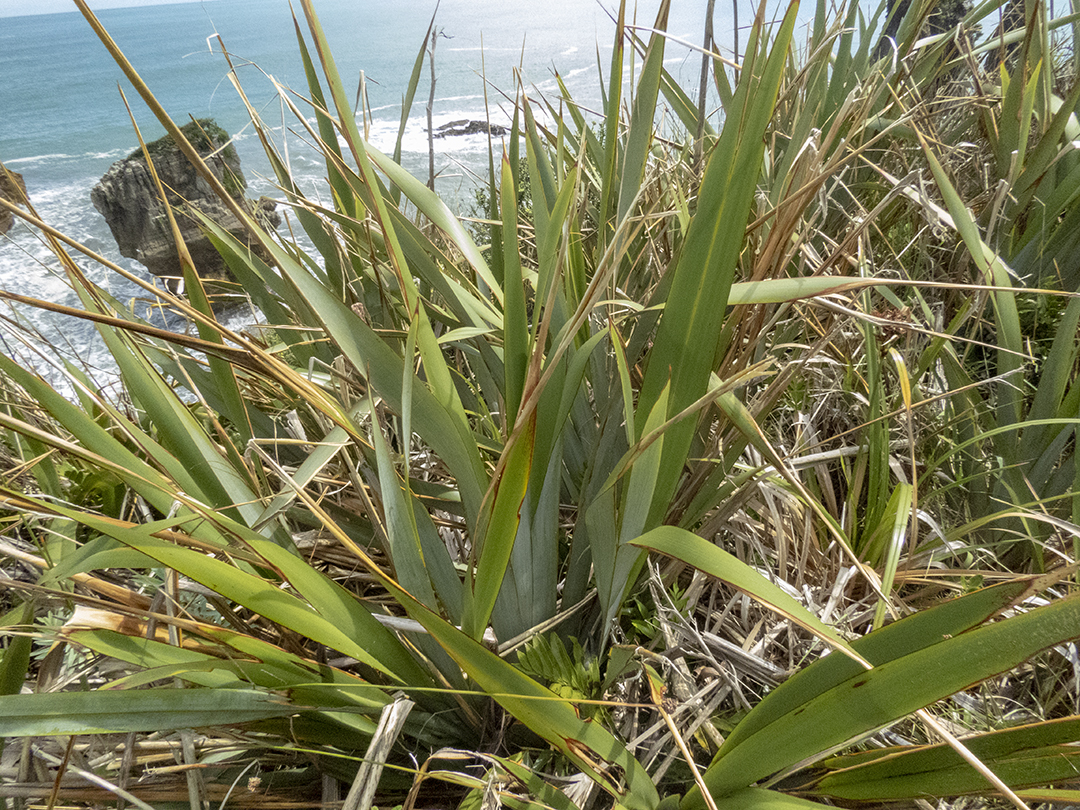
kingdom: Plantae
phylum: Tracheophyta
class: Liliopsida
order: Asparagales
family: Asphodelaceae
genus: Phormium
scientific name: Phormium tenax
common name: New zealand flax
